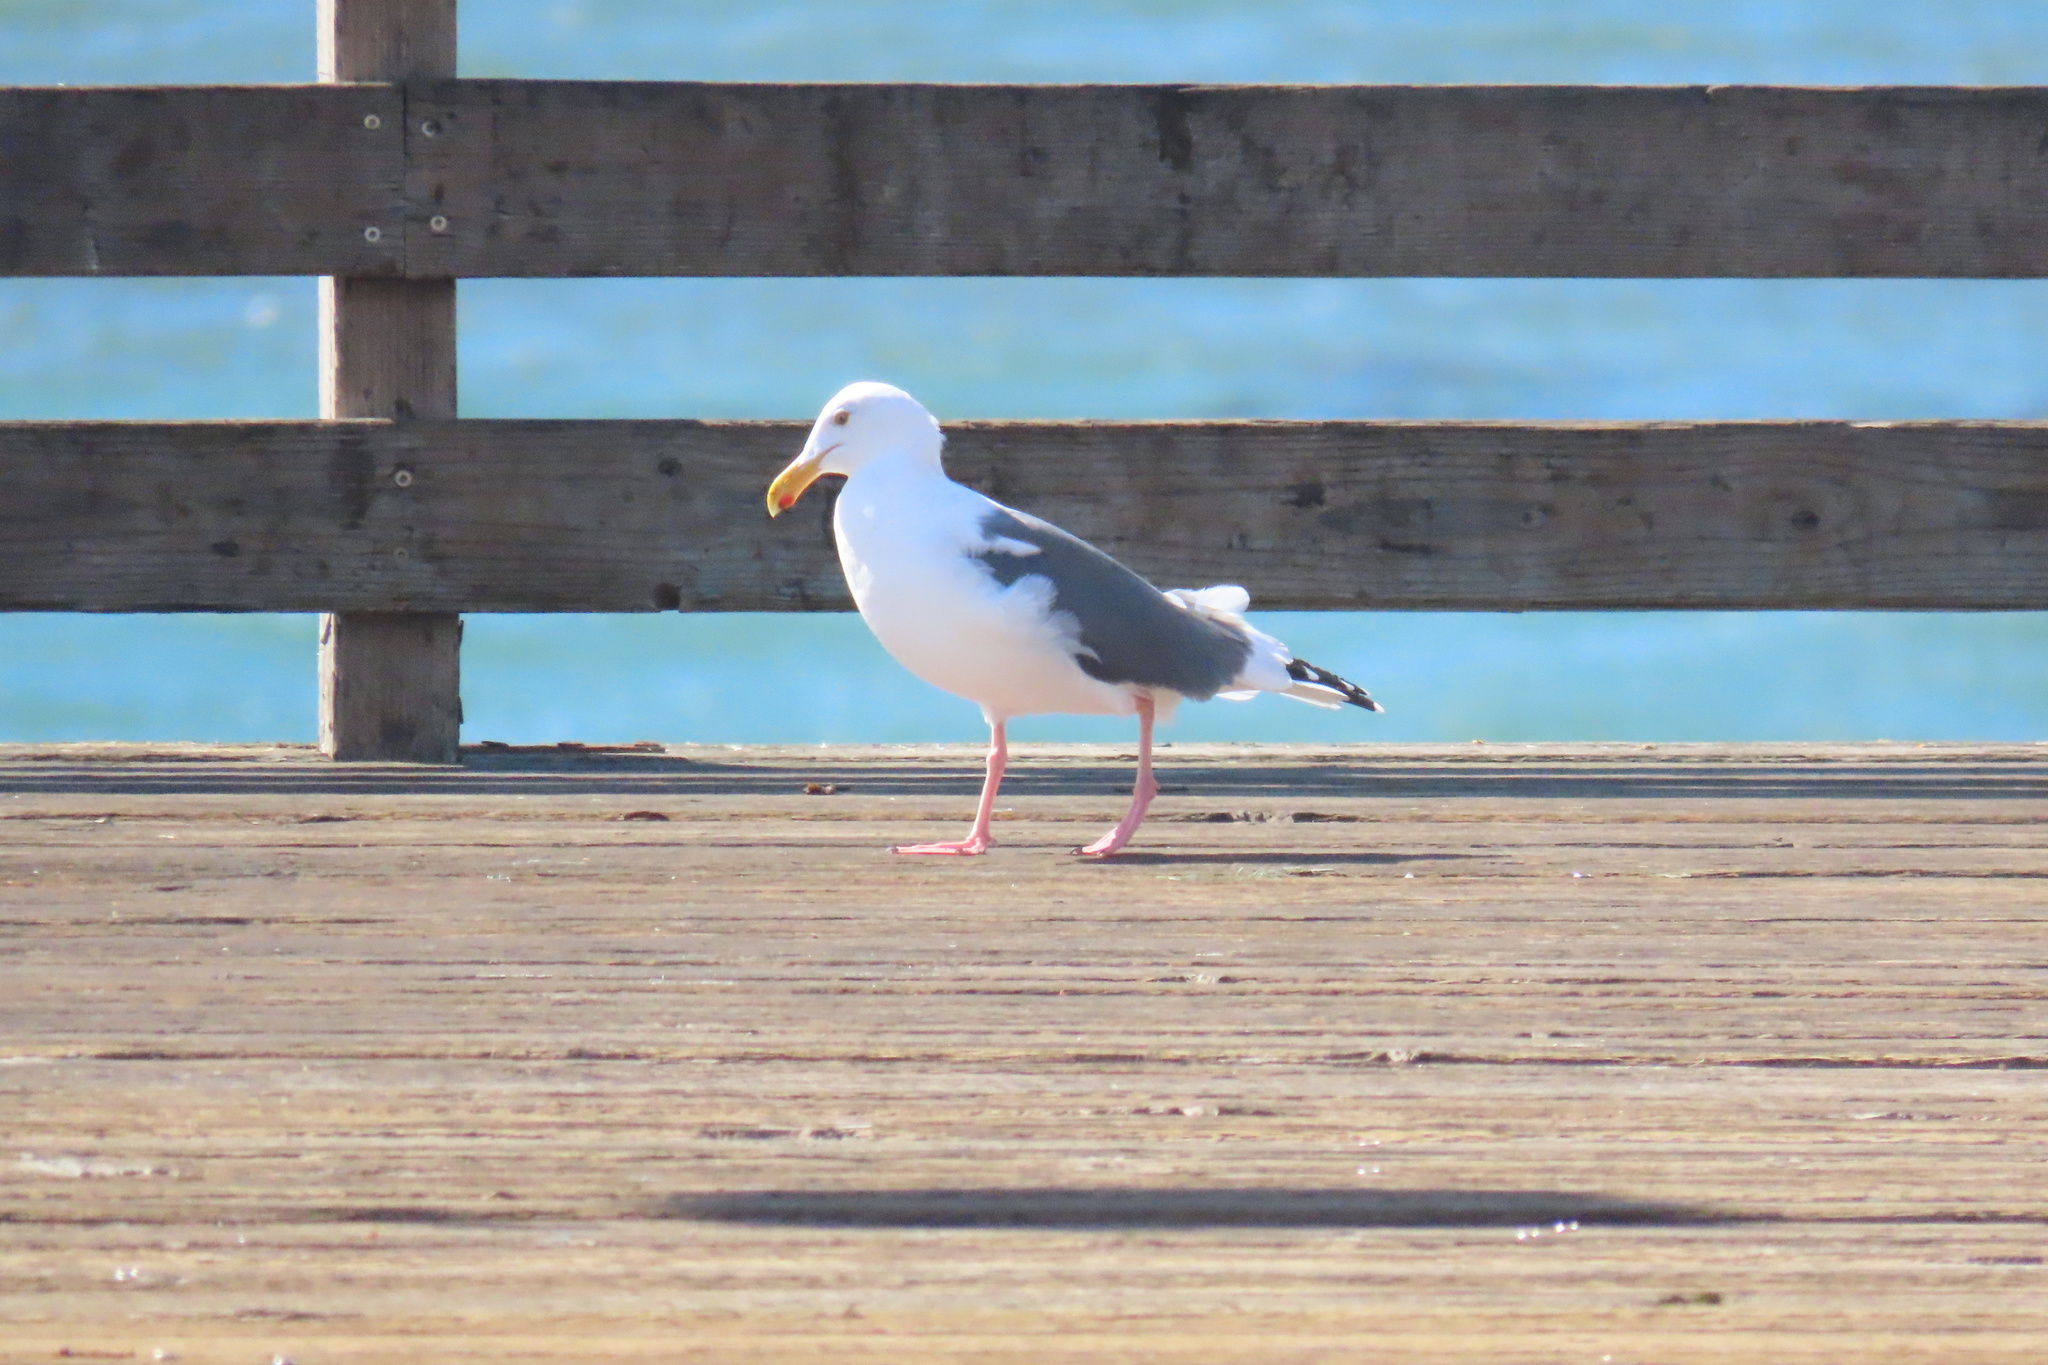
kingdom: Animalia
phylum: Chordata
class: Aves
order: Charadriiformes
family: Laridae
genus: Larus
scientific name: Larus occidentalis
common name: Western gull
